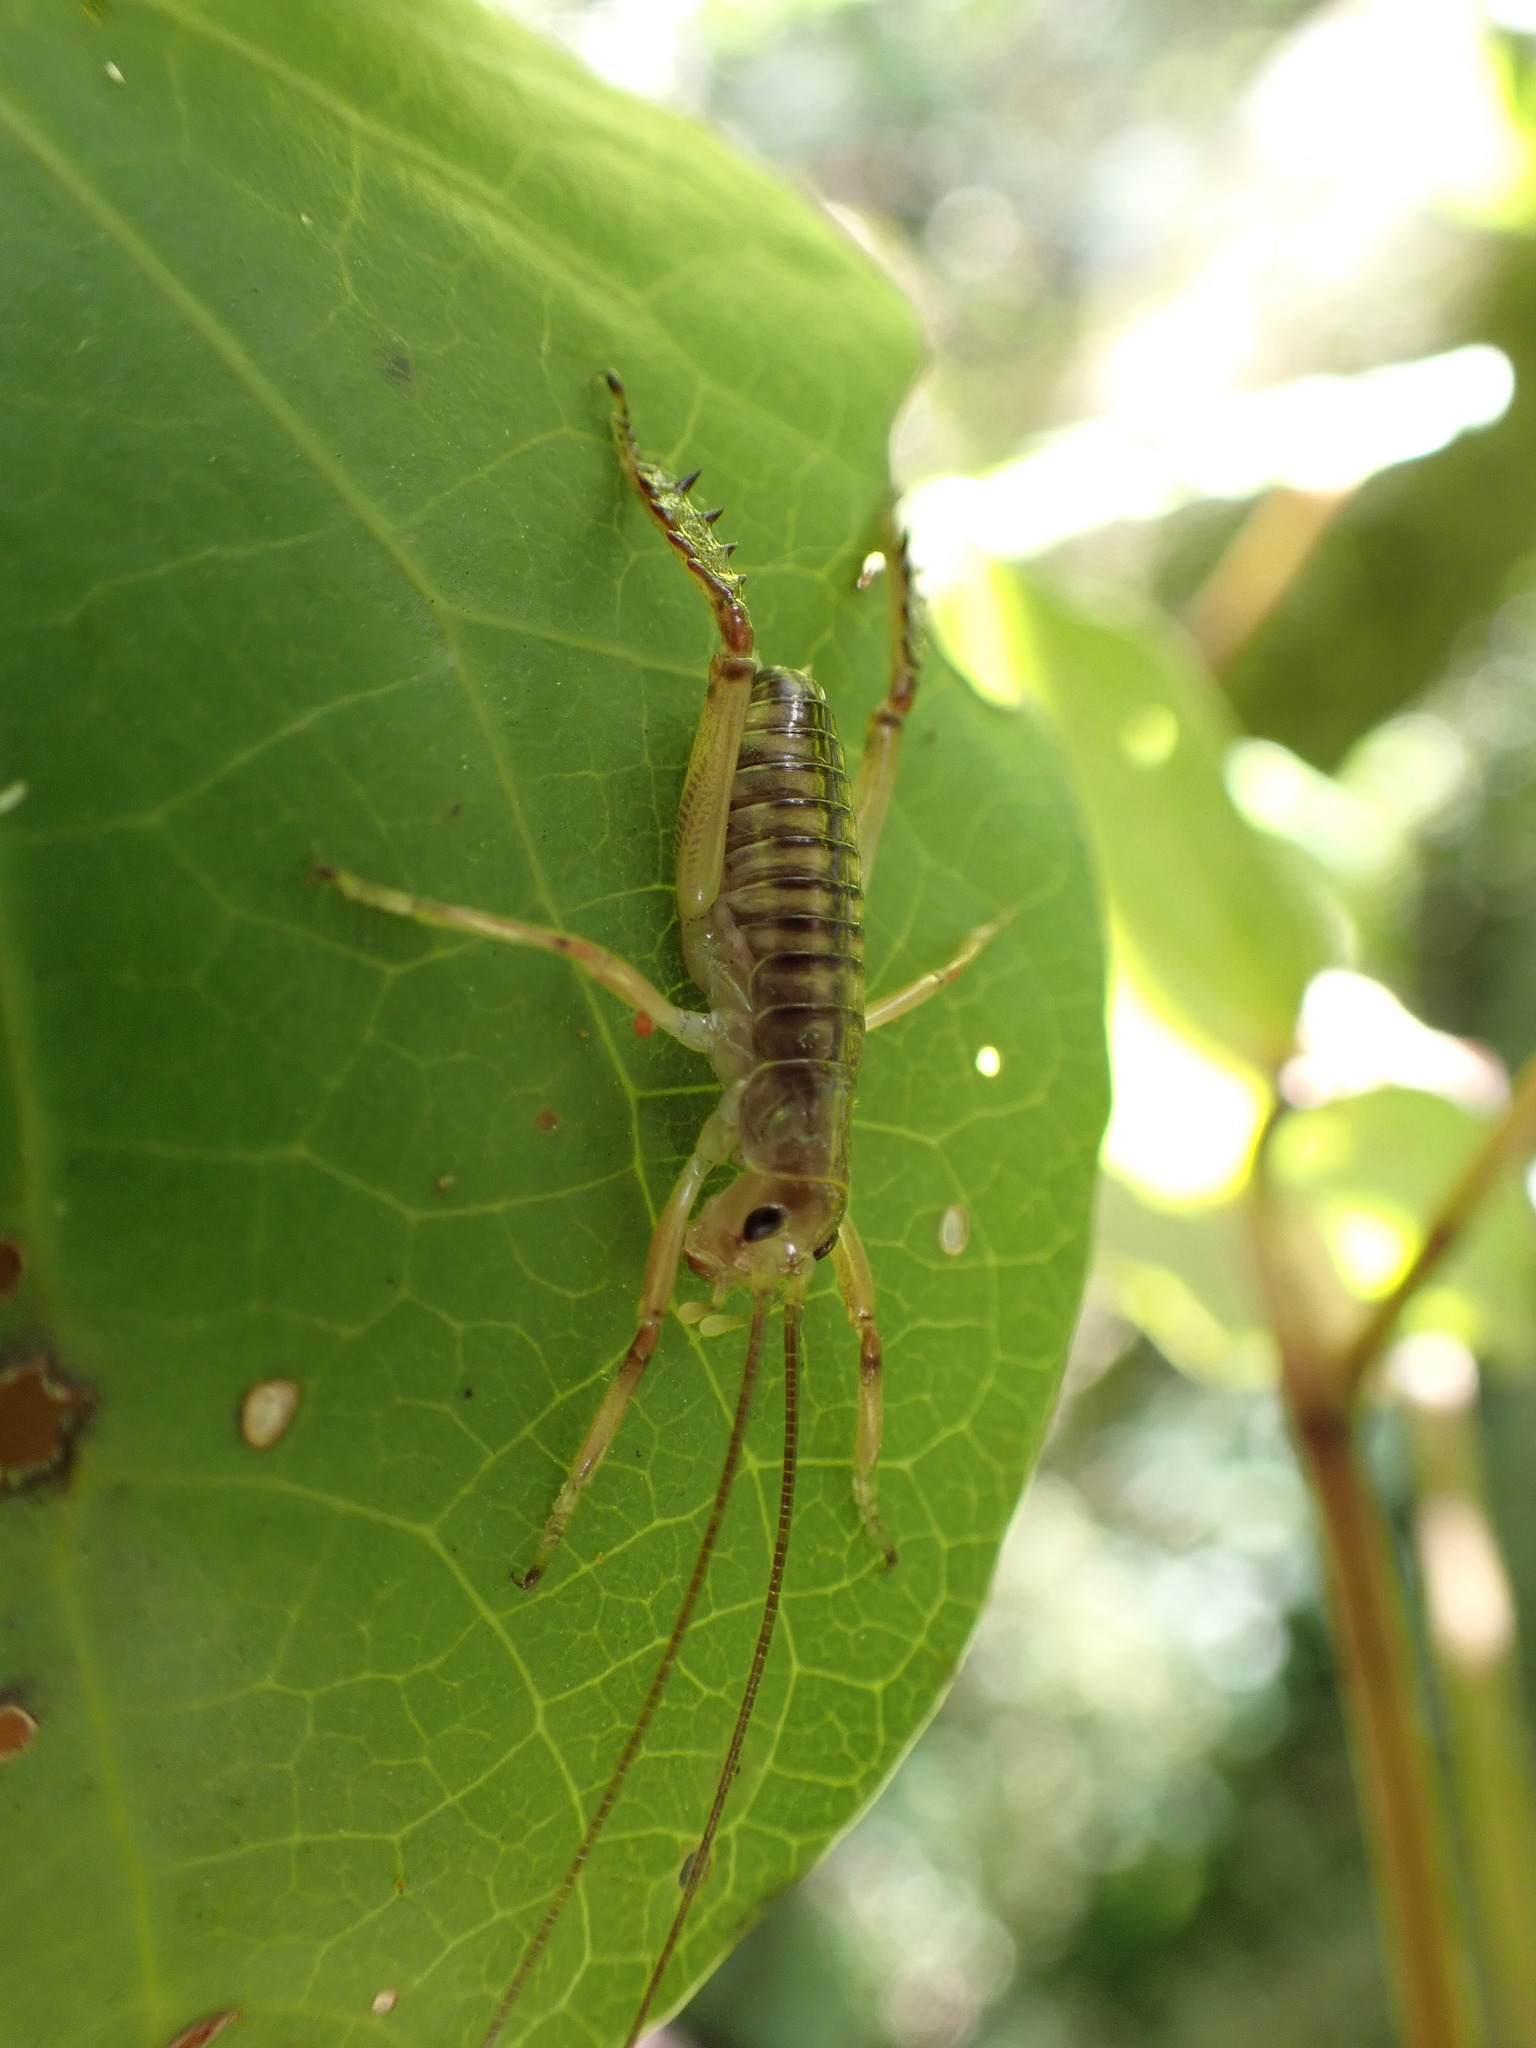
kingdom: Animalia
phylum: Arthropoda
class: Insecta
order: Orthoptera
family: Anostostomatidae
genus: Hemideina
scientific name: Hemideina crassidens
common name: Wellington tree weta
